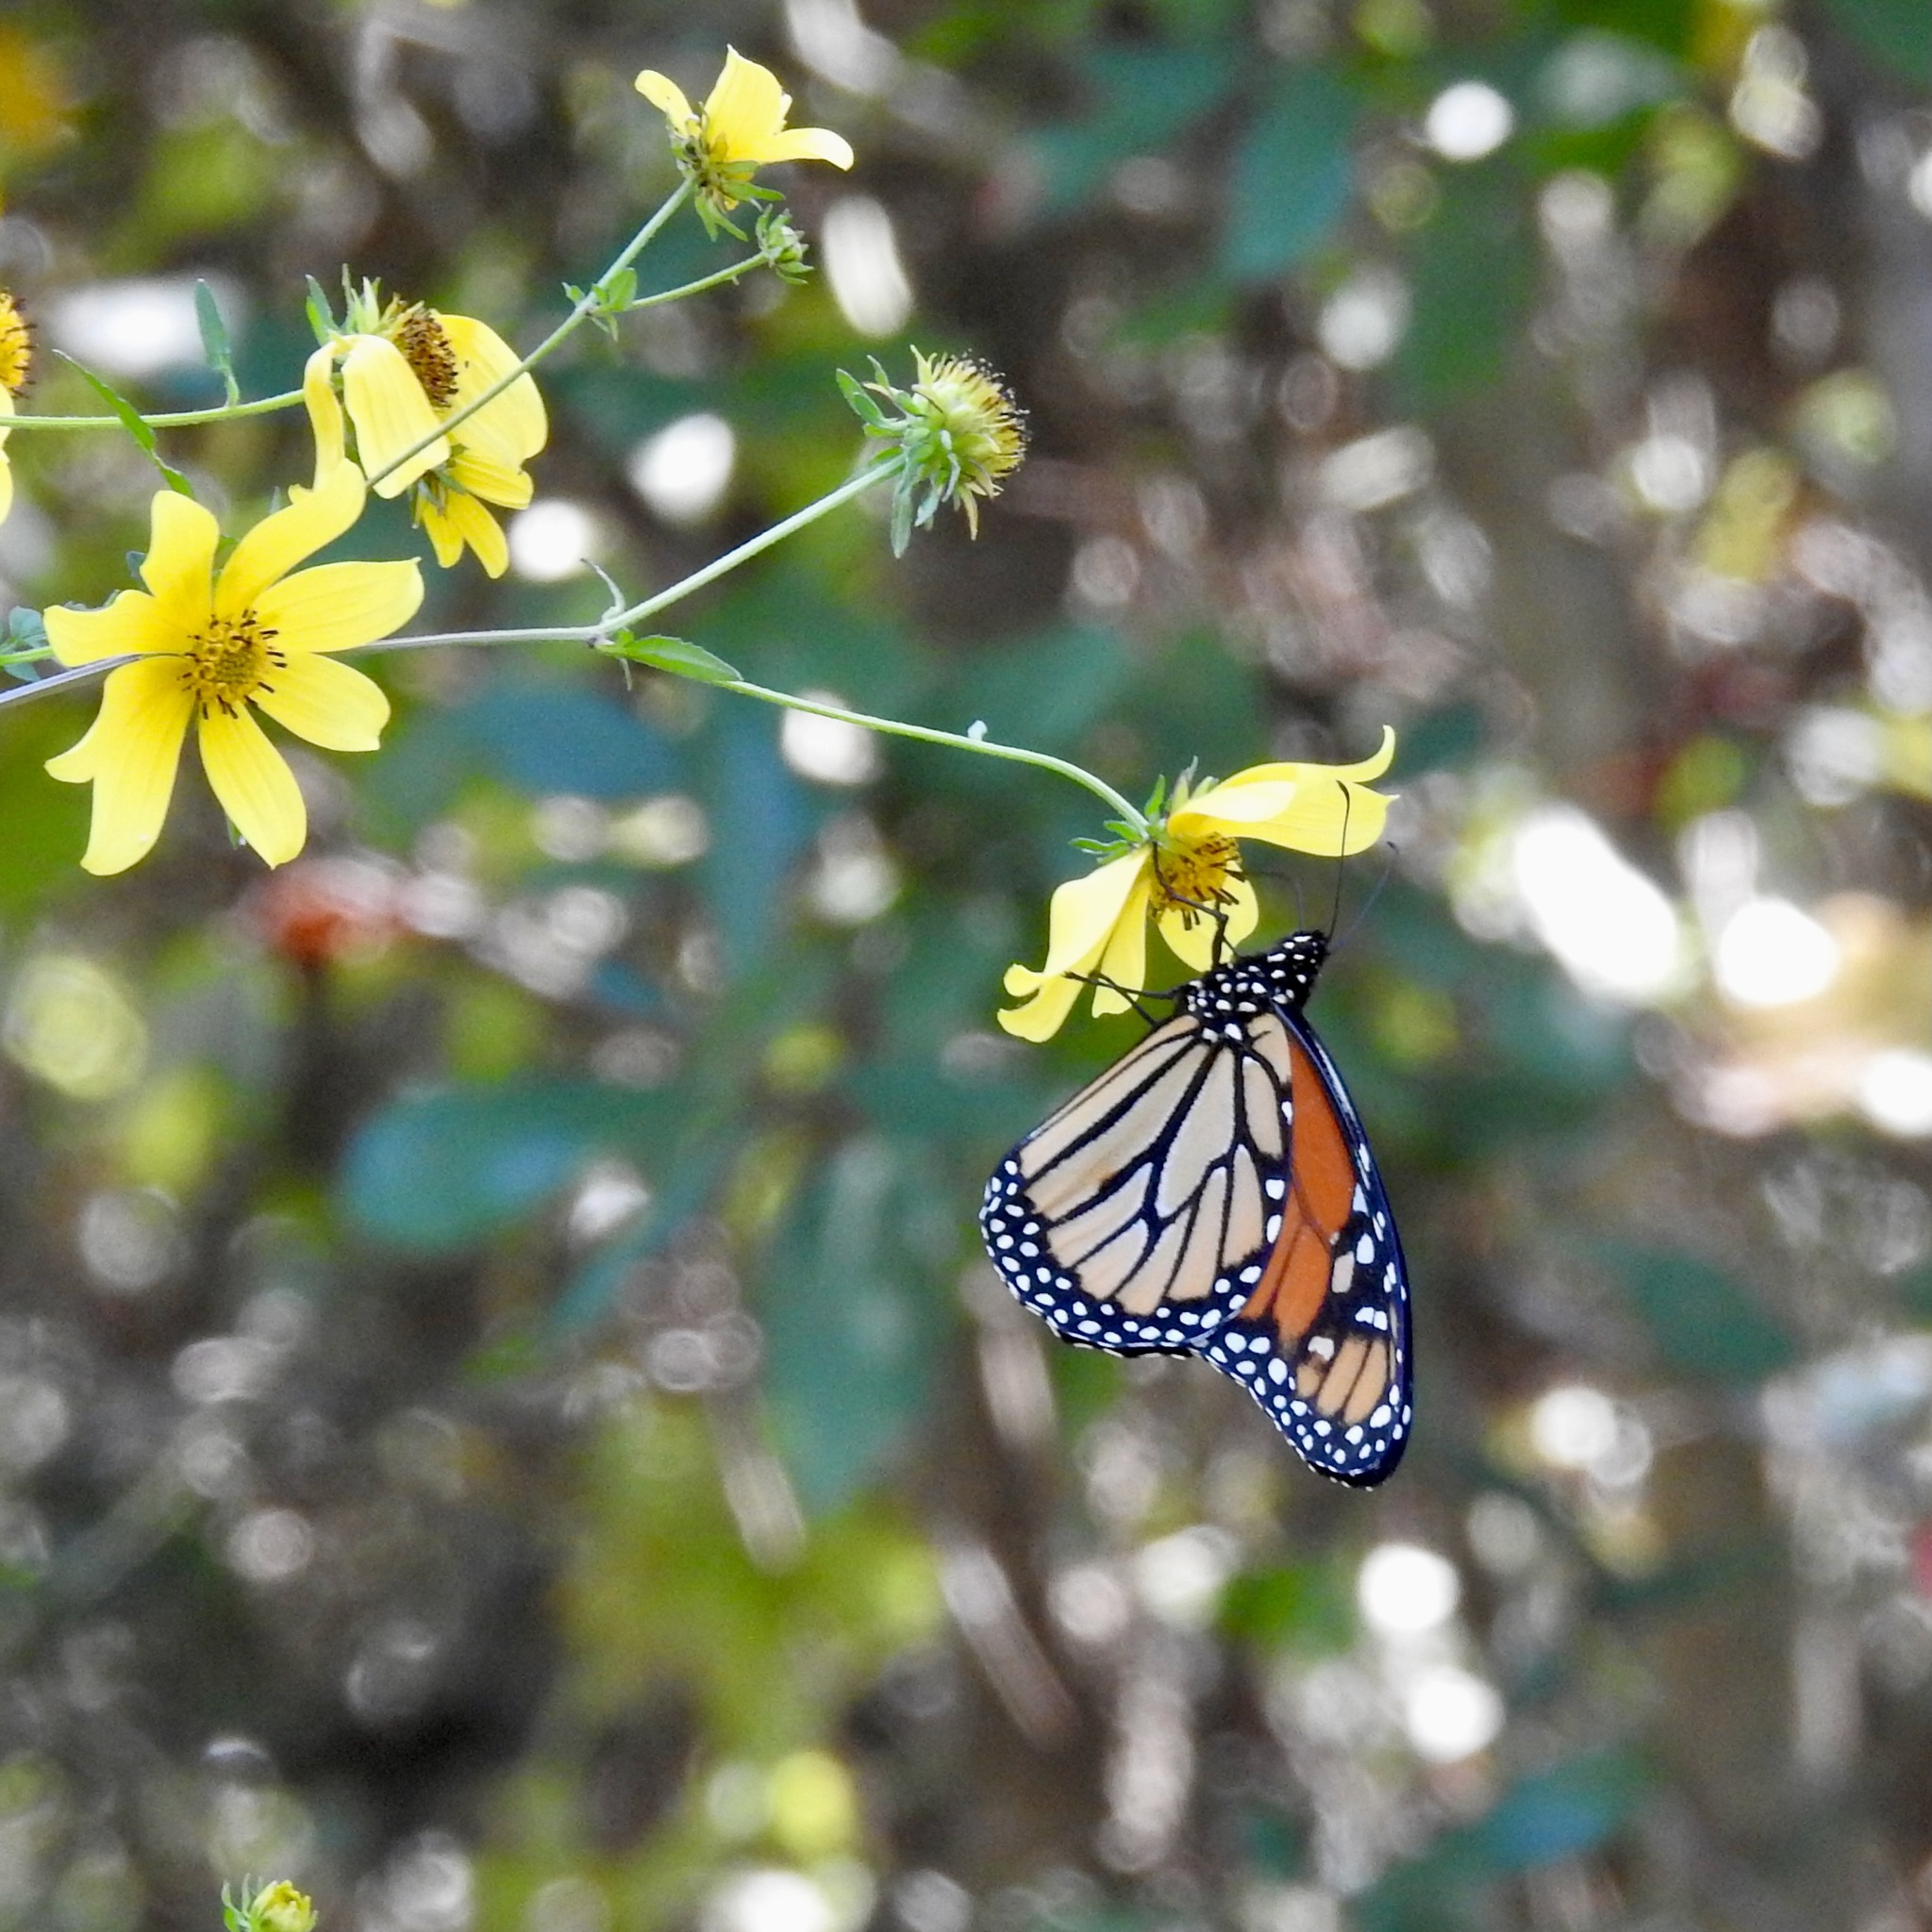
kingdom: Animalia
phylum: Arthropoda
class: Insecta
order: Lepidoptera
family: Nymphalidae
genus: Danaus
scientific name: Danaus plexippus
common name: Monarch
